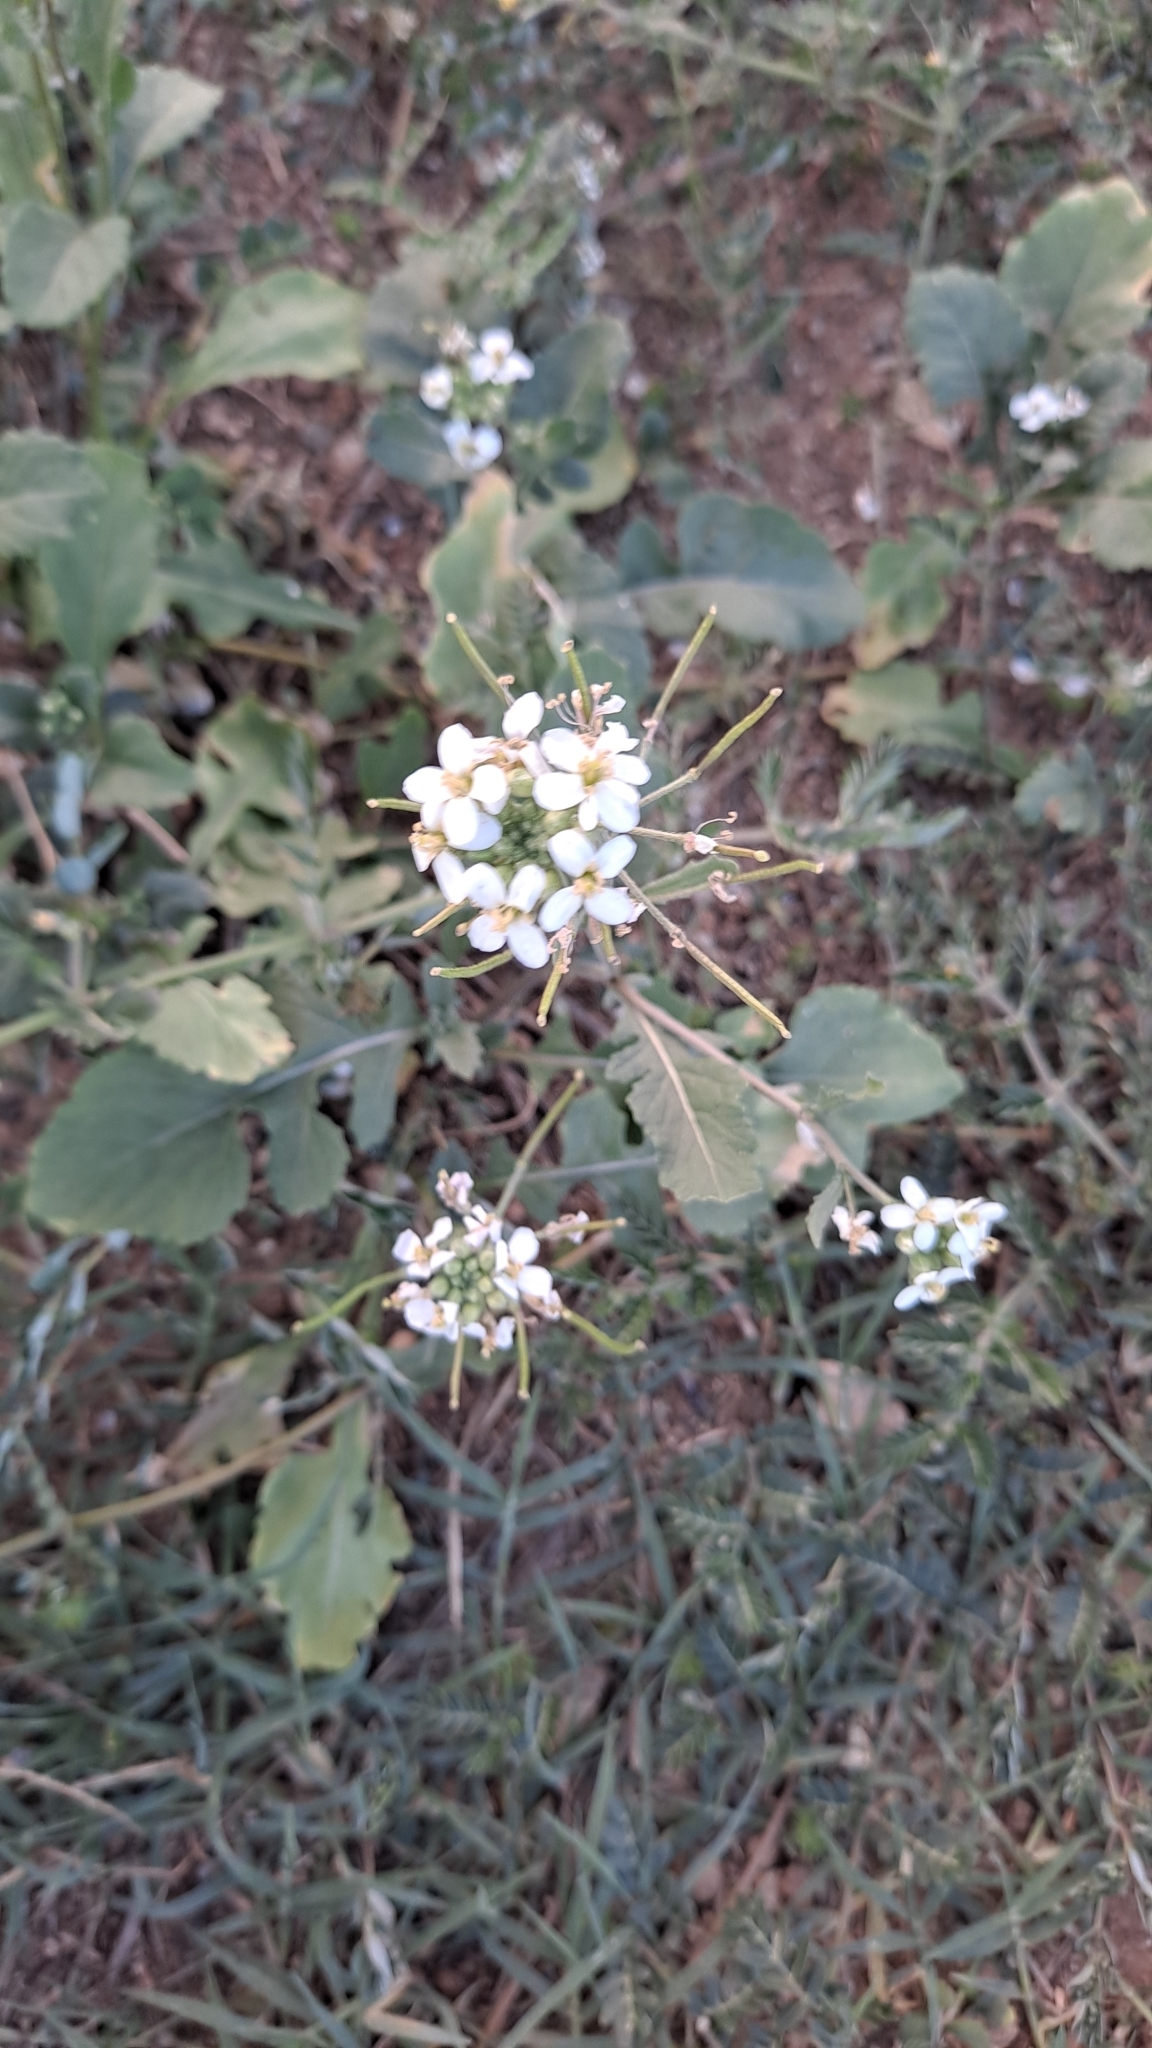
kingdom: Plantae
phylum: Tracheophyta
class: Magnoliopsida
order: Brassicales
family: Brassicaceae
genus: Diplotaxis
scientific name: Diplotaxis erucoides
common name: White rocket
